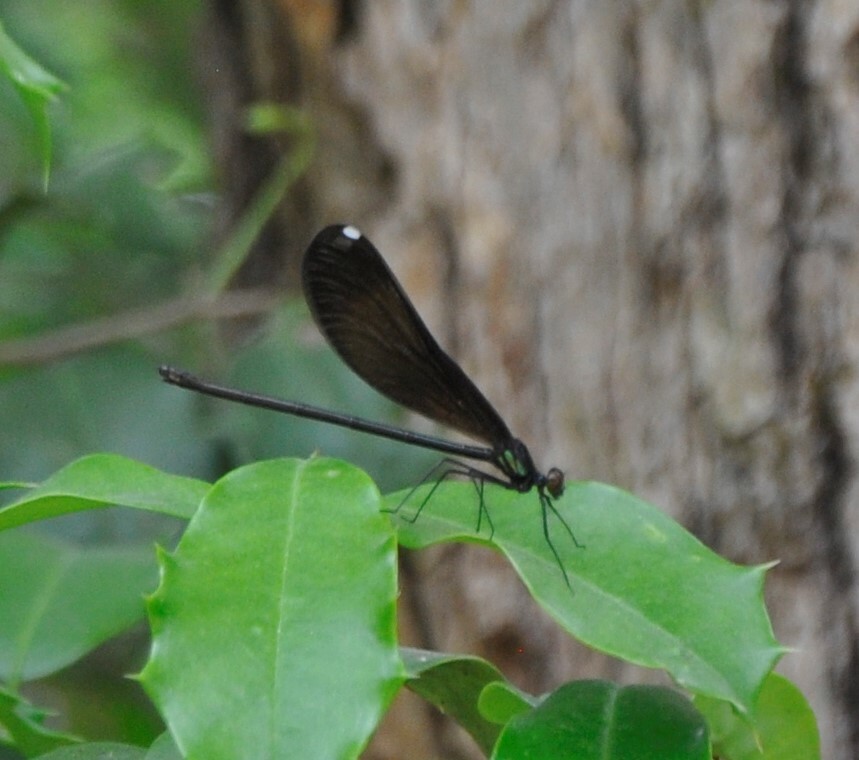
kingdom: Animalia
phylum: Arthropoda
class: Insecta
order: Odonata
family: Calopterygidae
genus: Calopteryx
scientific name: Calopteryx maculata
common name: Ebony jewelwing
